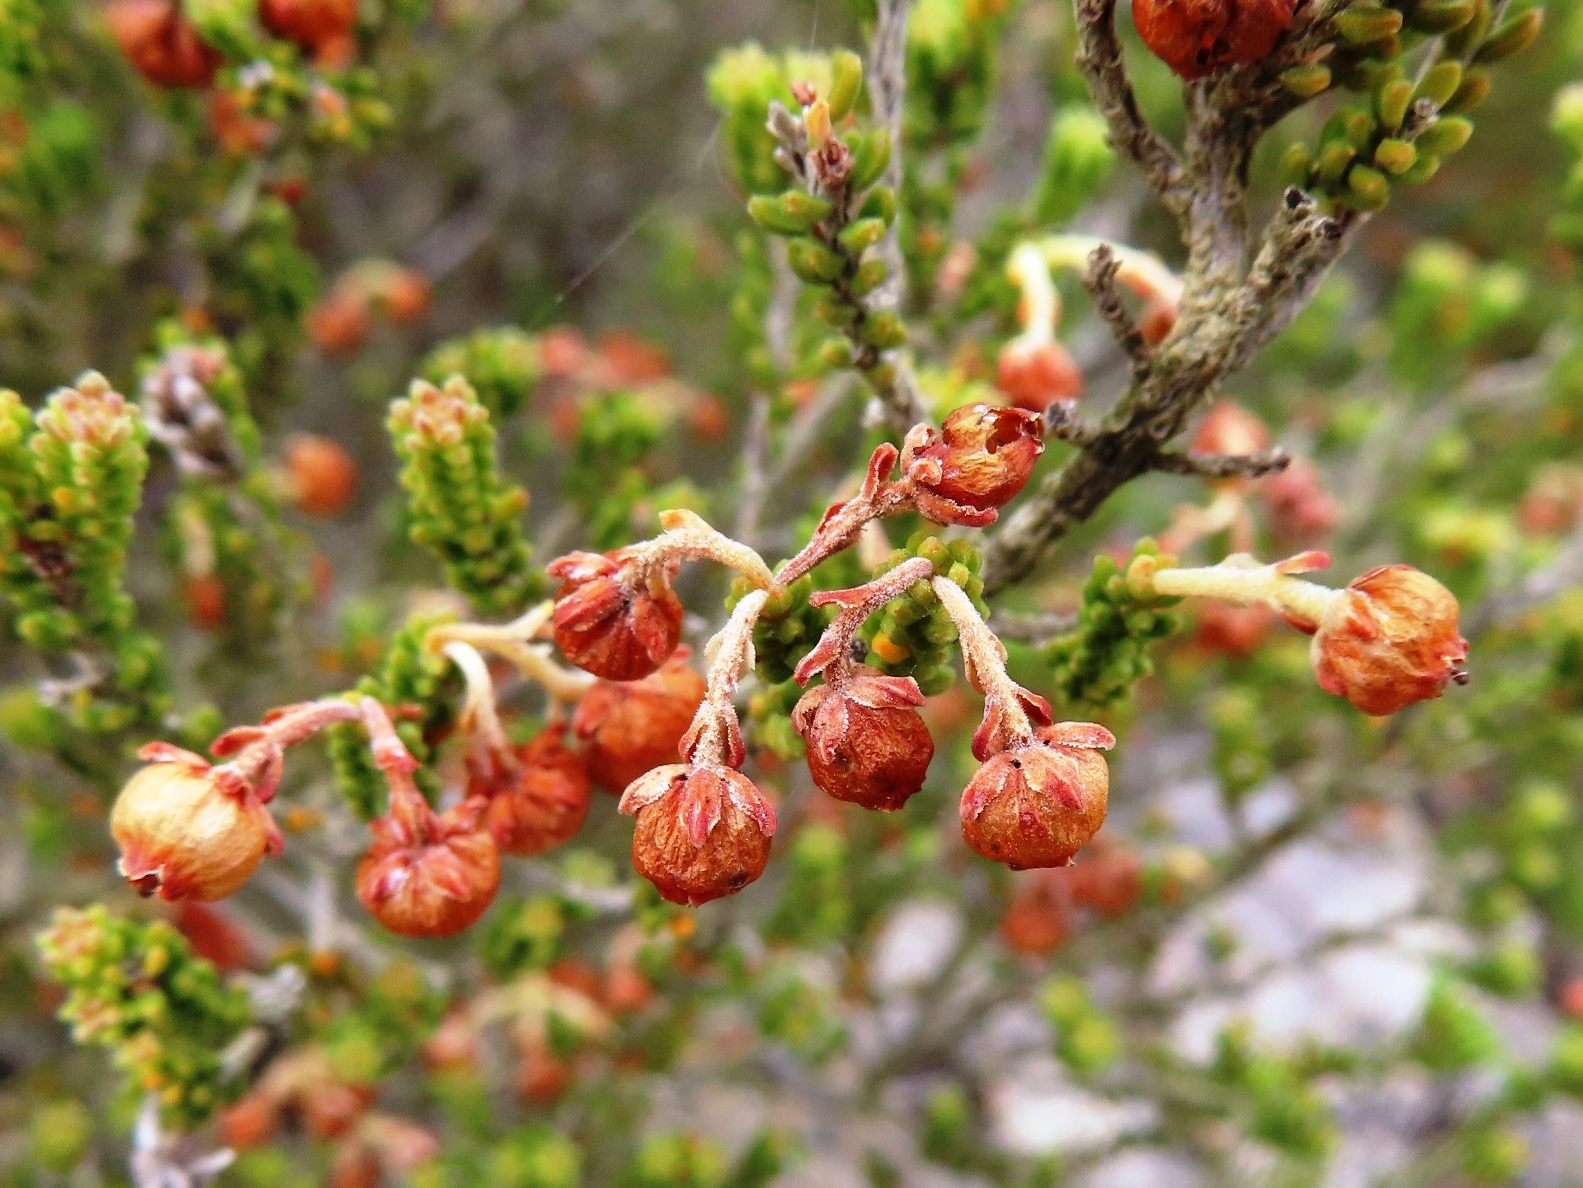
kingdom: Plantae
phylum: Tracheophyta
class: Magnoliopsida
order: Ericales
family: Ericaceae
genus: Erica
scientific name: Erica spectabilis
